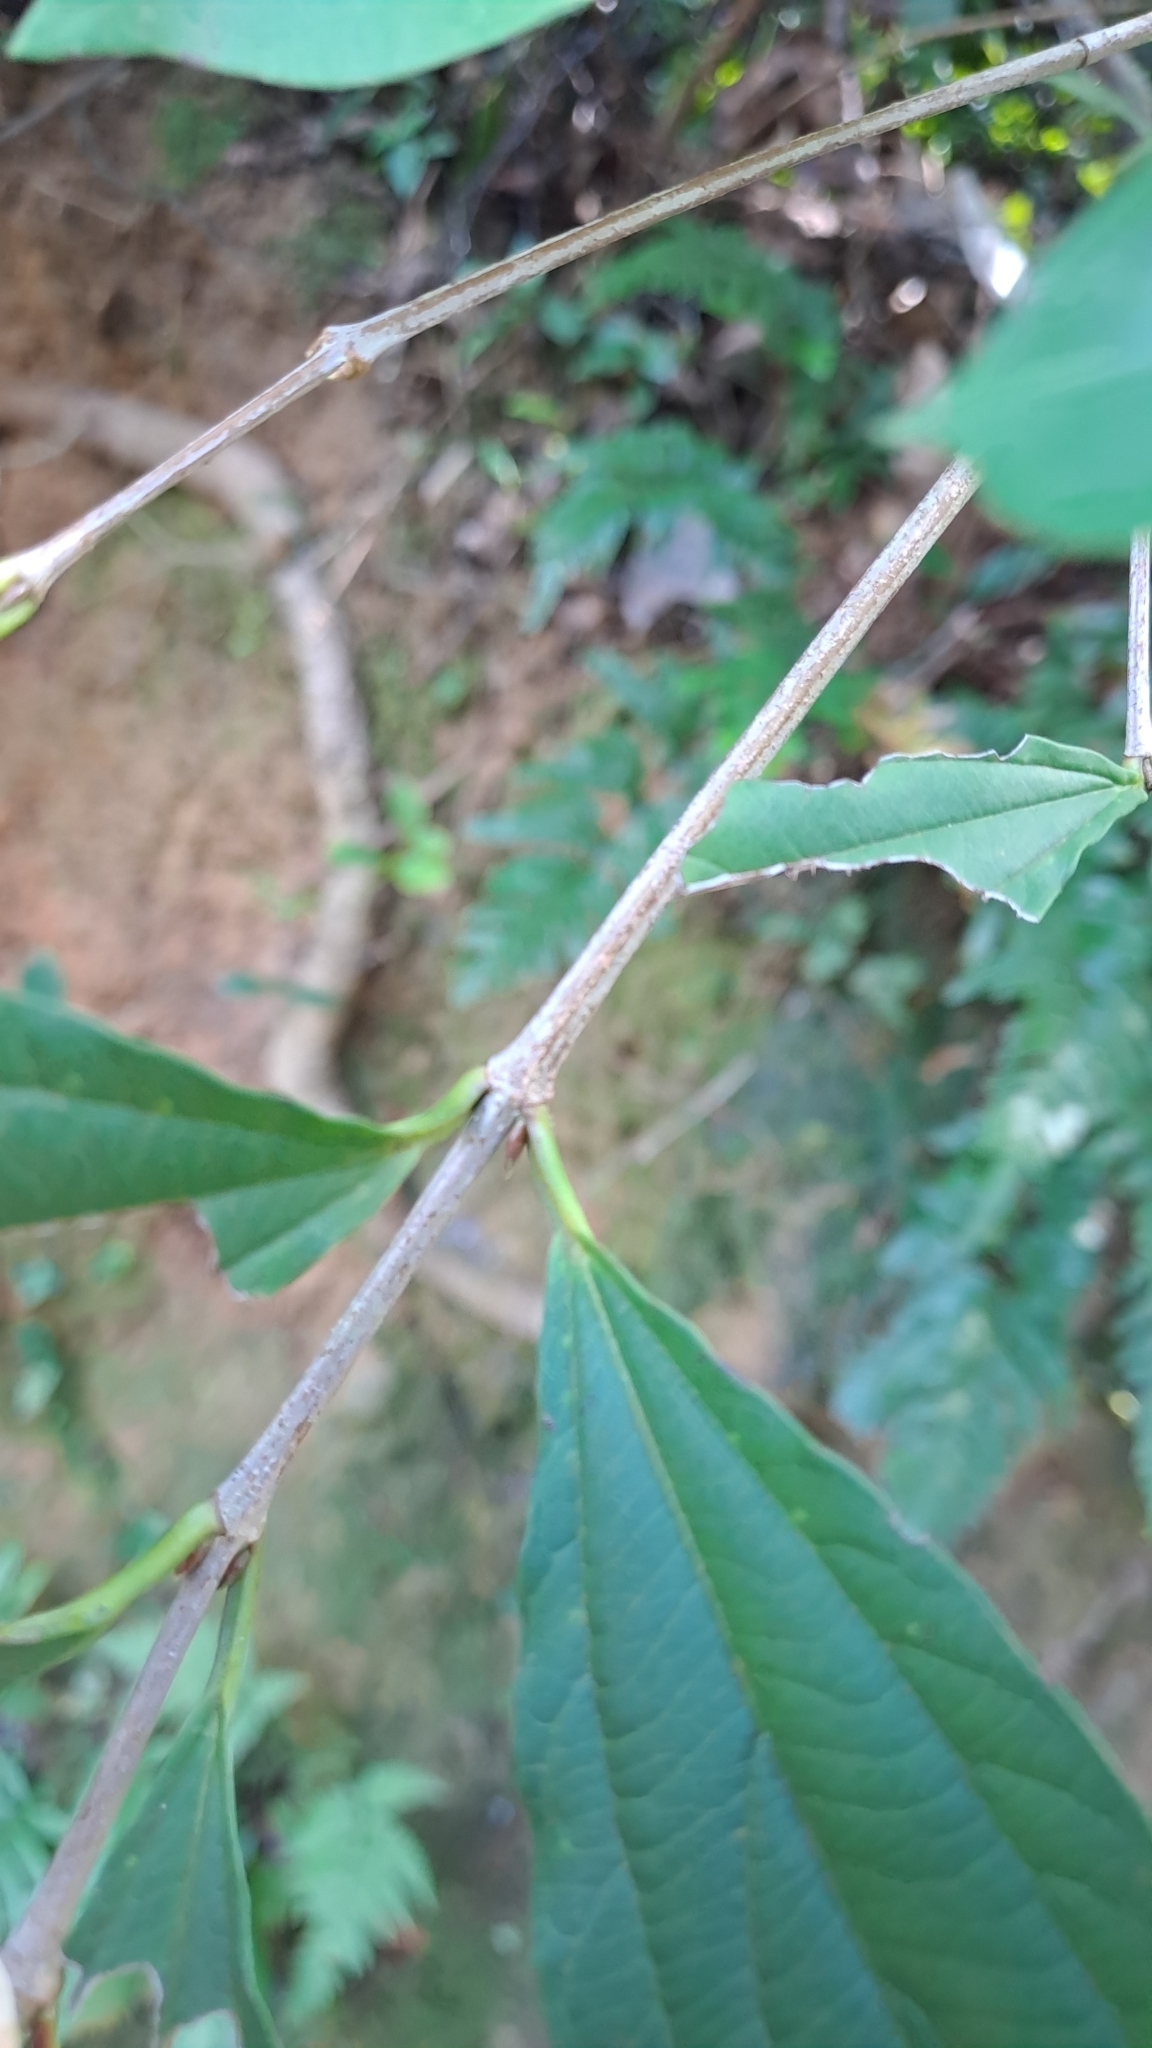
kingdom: Plantae
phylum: Tracheophyta
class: Magnoliopsida
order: Dipsacales
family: Viburnaceae
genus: Viburnum
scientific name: Viburnum sempervirens
